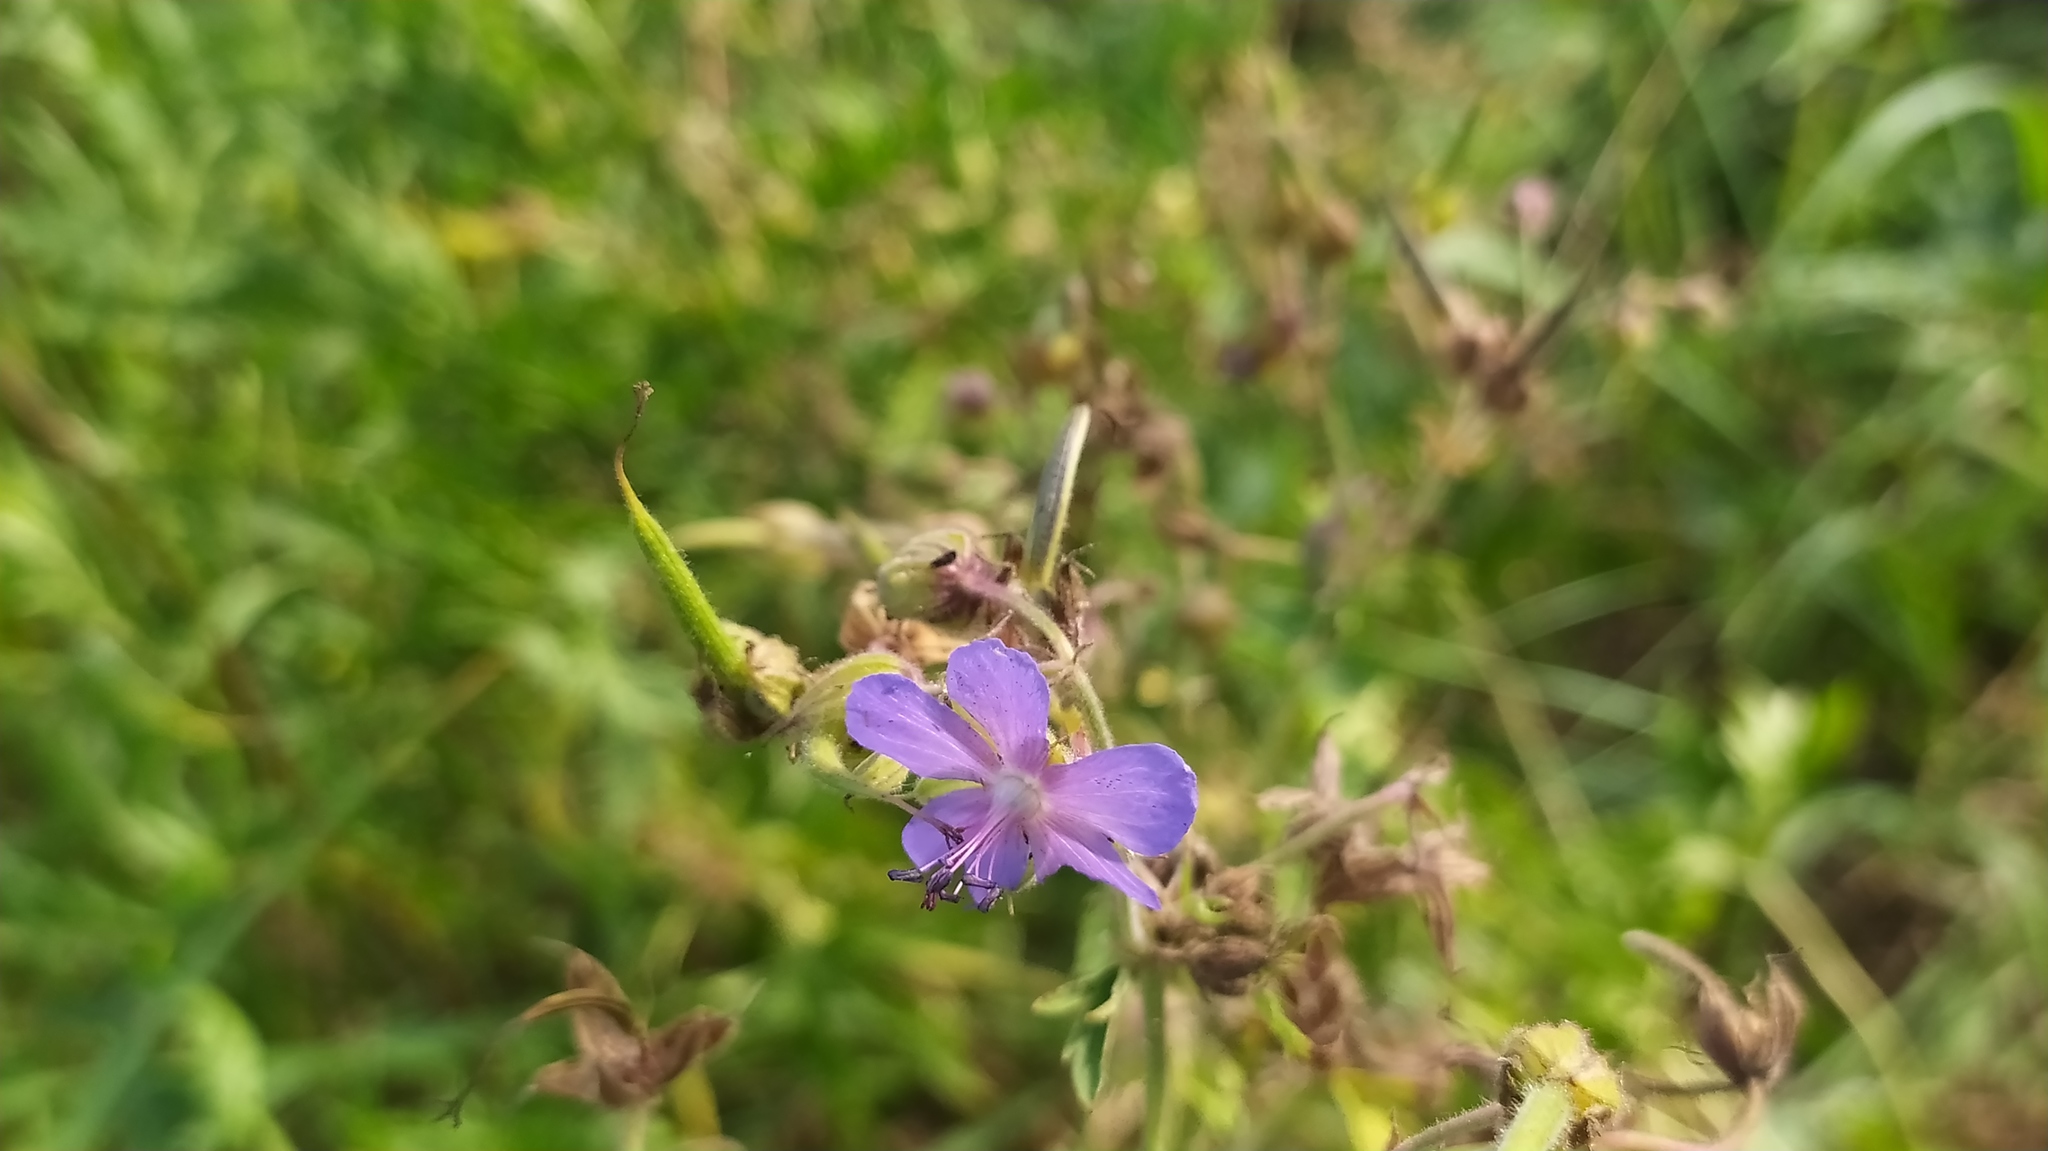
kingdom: Plantae
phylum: Tracheophyta
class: Magnoliopsida
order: Geraniales
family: Geraniaceae
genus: Geranium
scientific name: Geranium pratense
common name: Meadow crane's-bill
